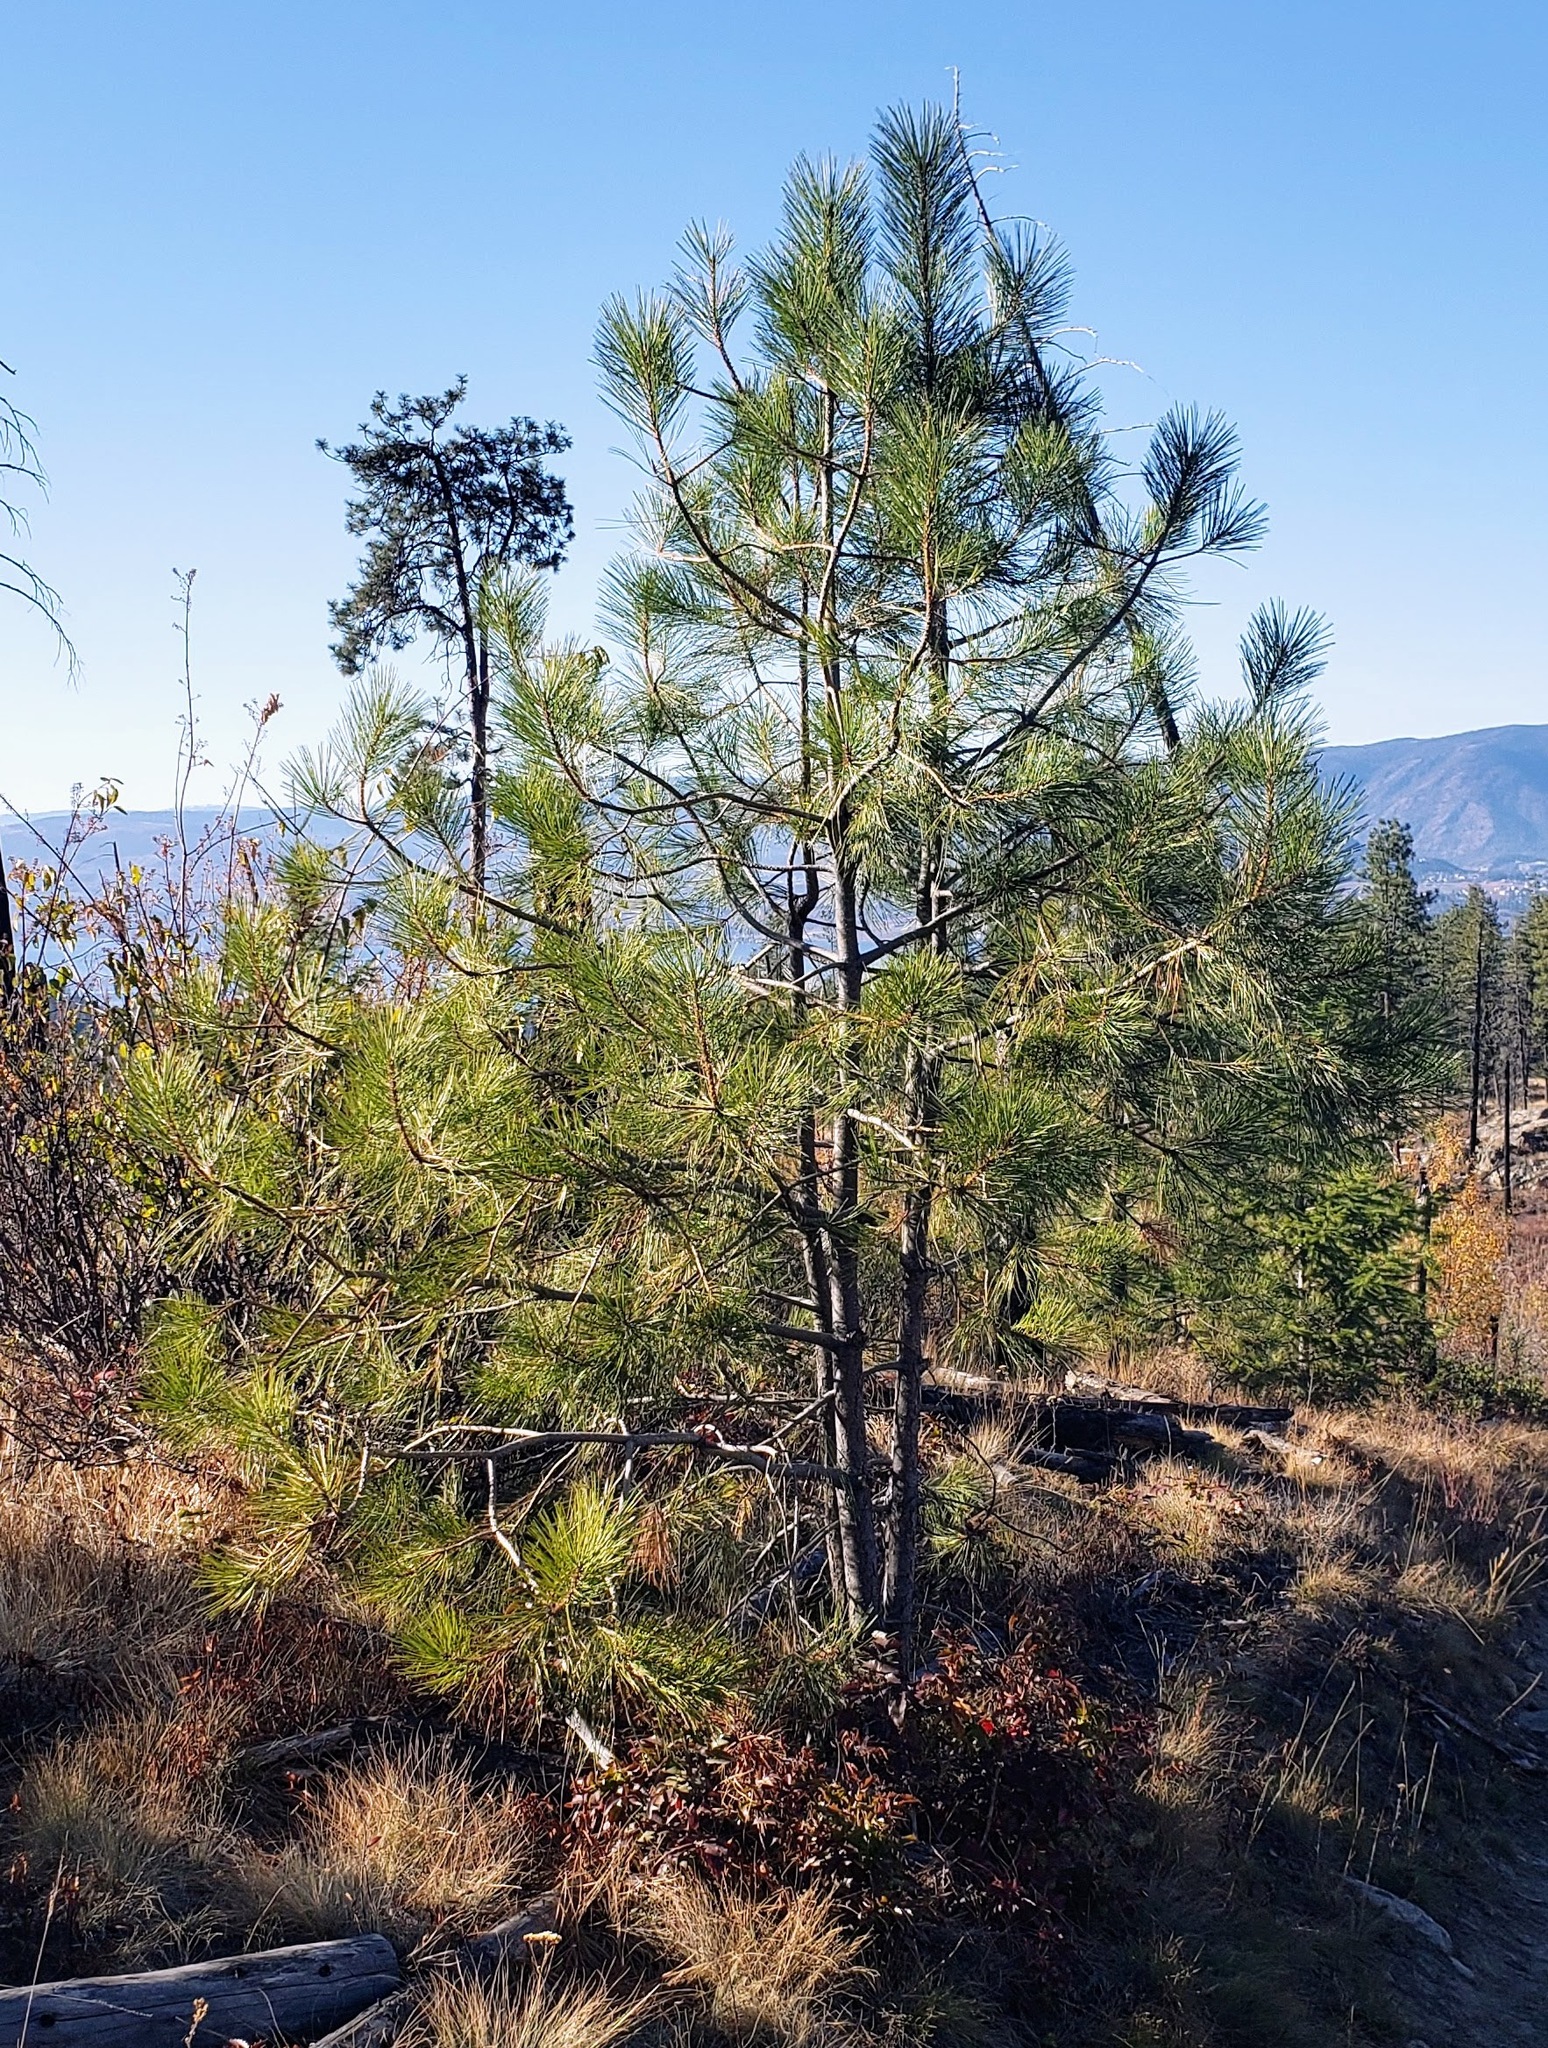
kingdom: Plantae
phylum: Tracheophyta
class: Pinopsida
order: Pinales
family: Pinaceae
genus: Pinus
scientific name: Pinus ponderosa
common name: Western yellow-pine
